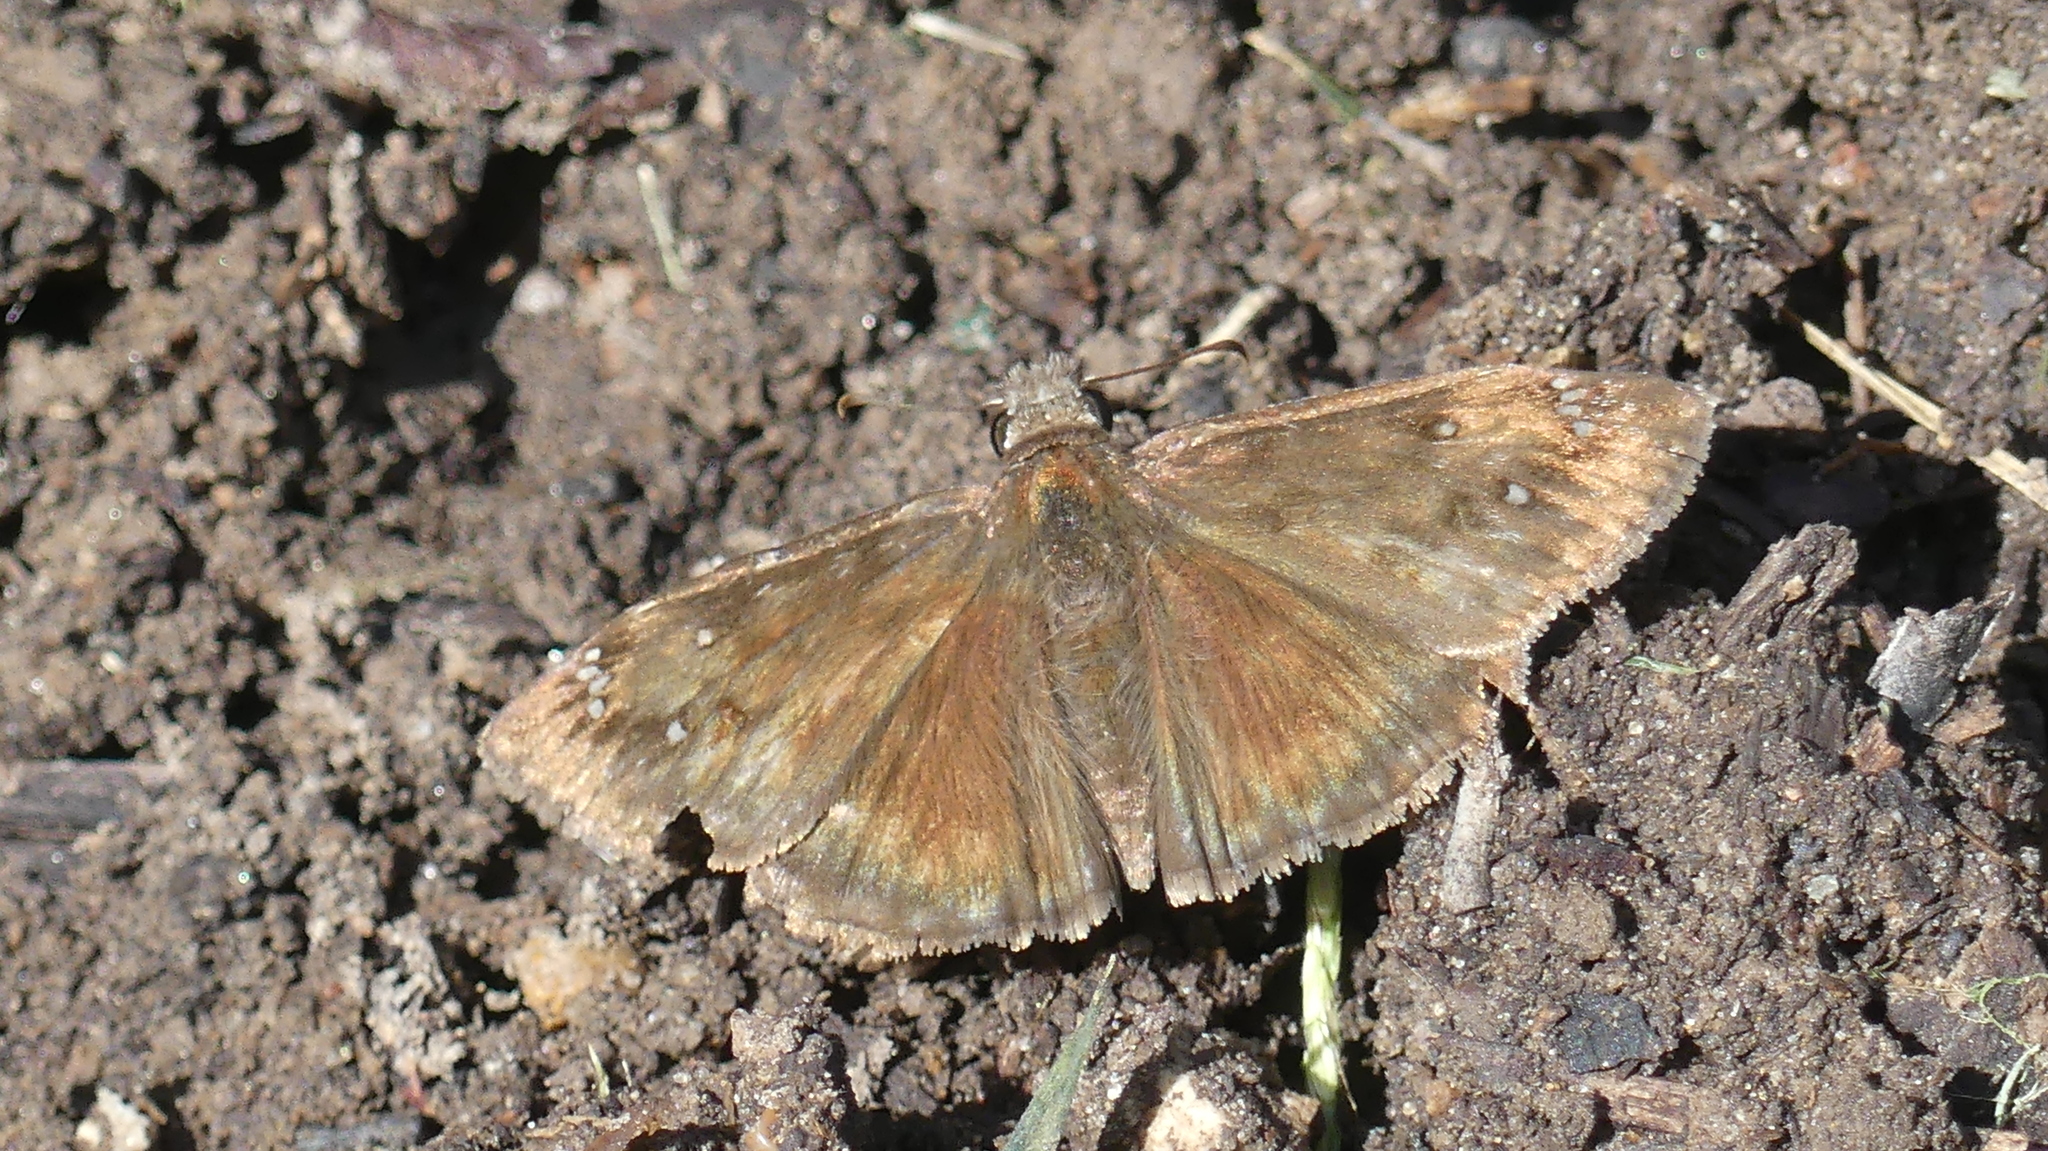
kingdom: Animalia
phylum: Arthropoda
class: Insecta
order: Lepidoptera
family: Hesperiidae
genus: Erynnis
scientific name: Erynnis horatius
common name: Horace's duskywing
